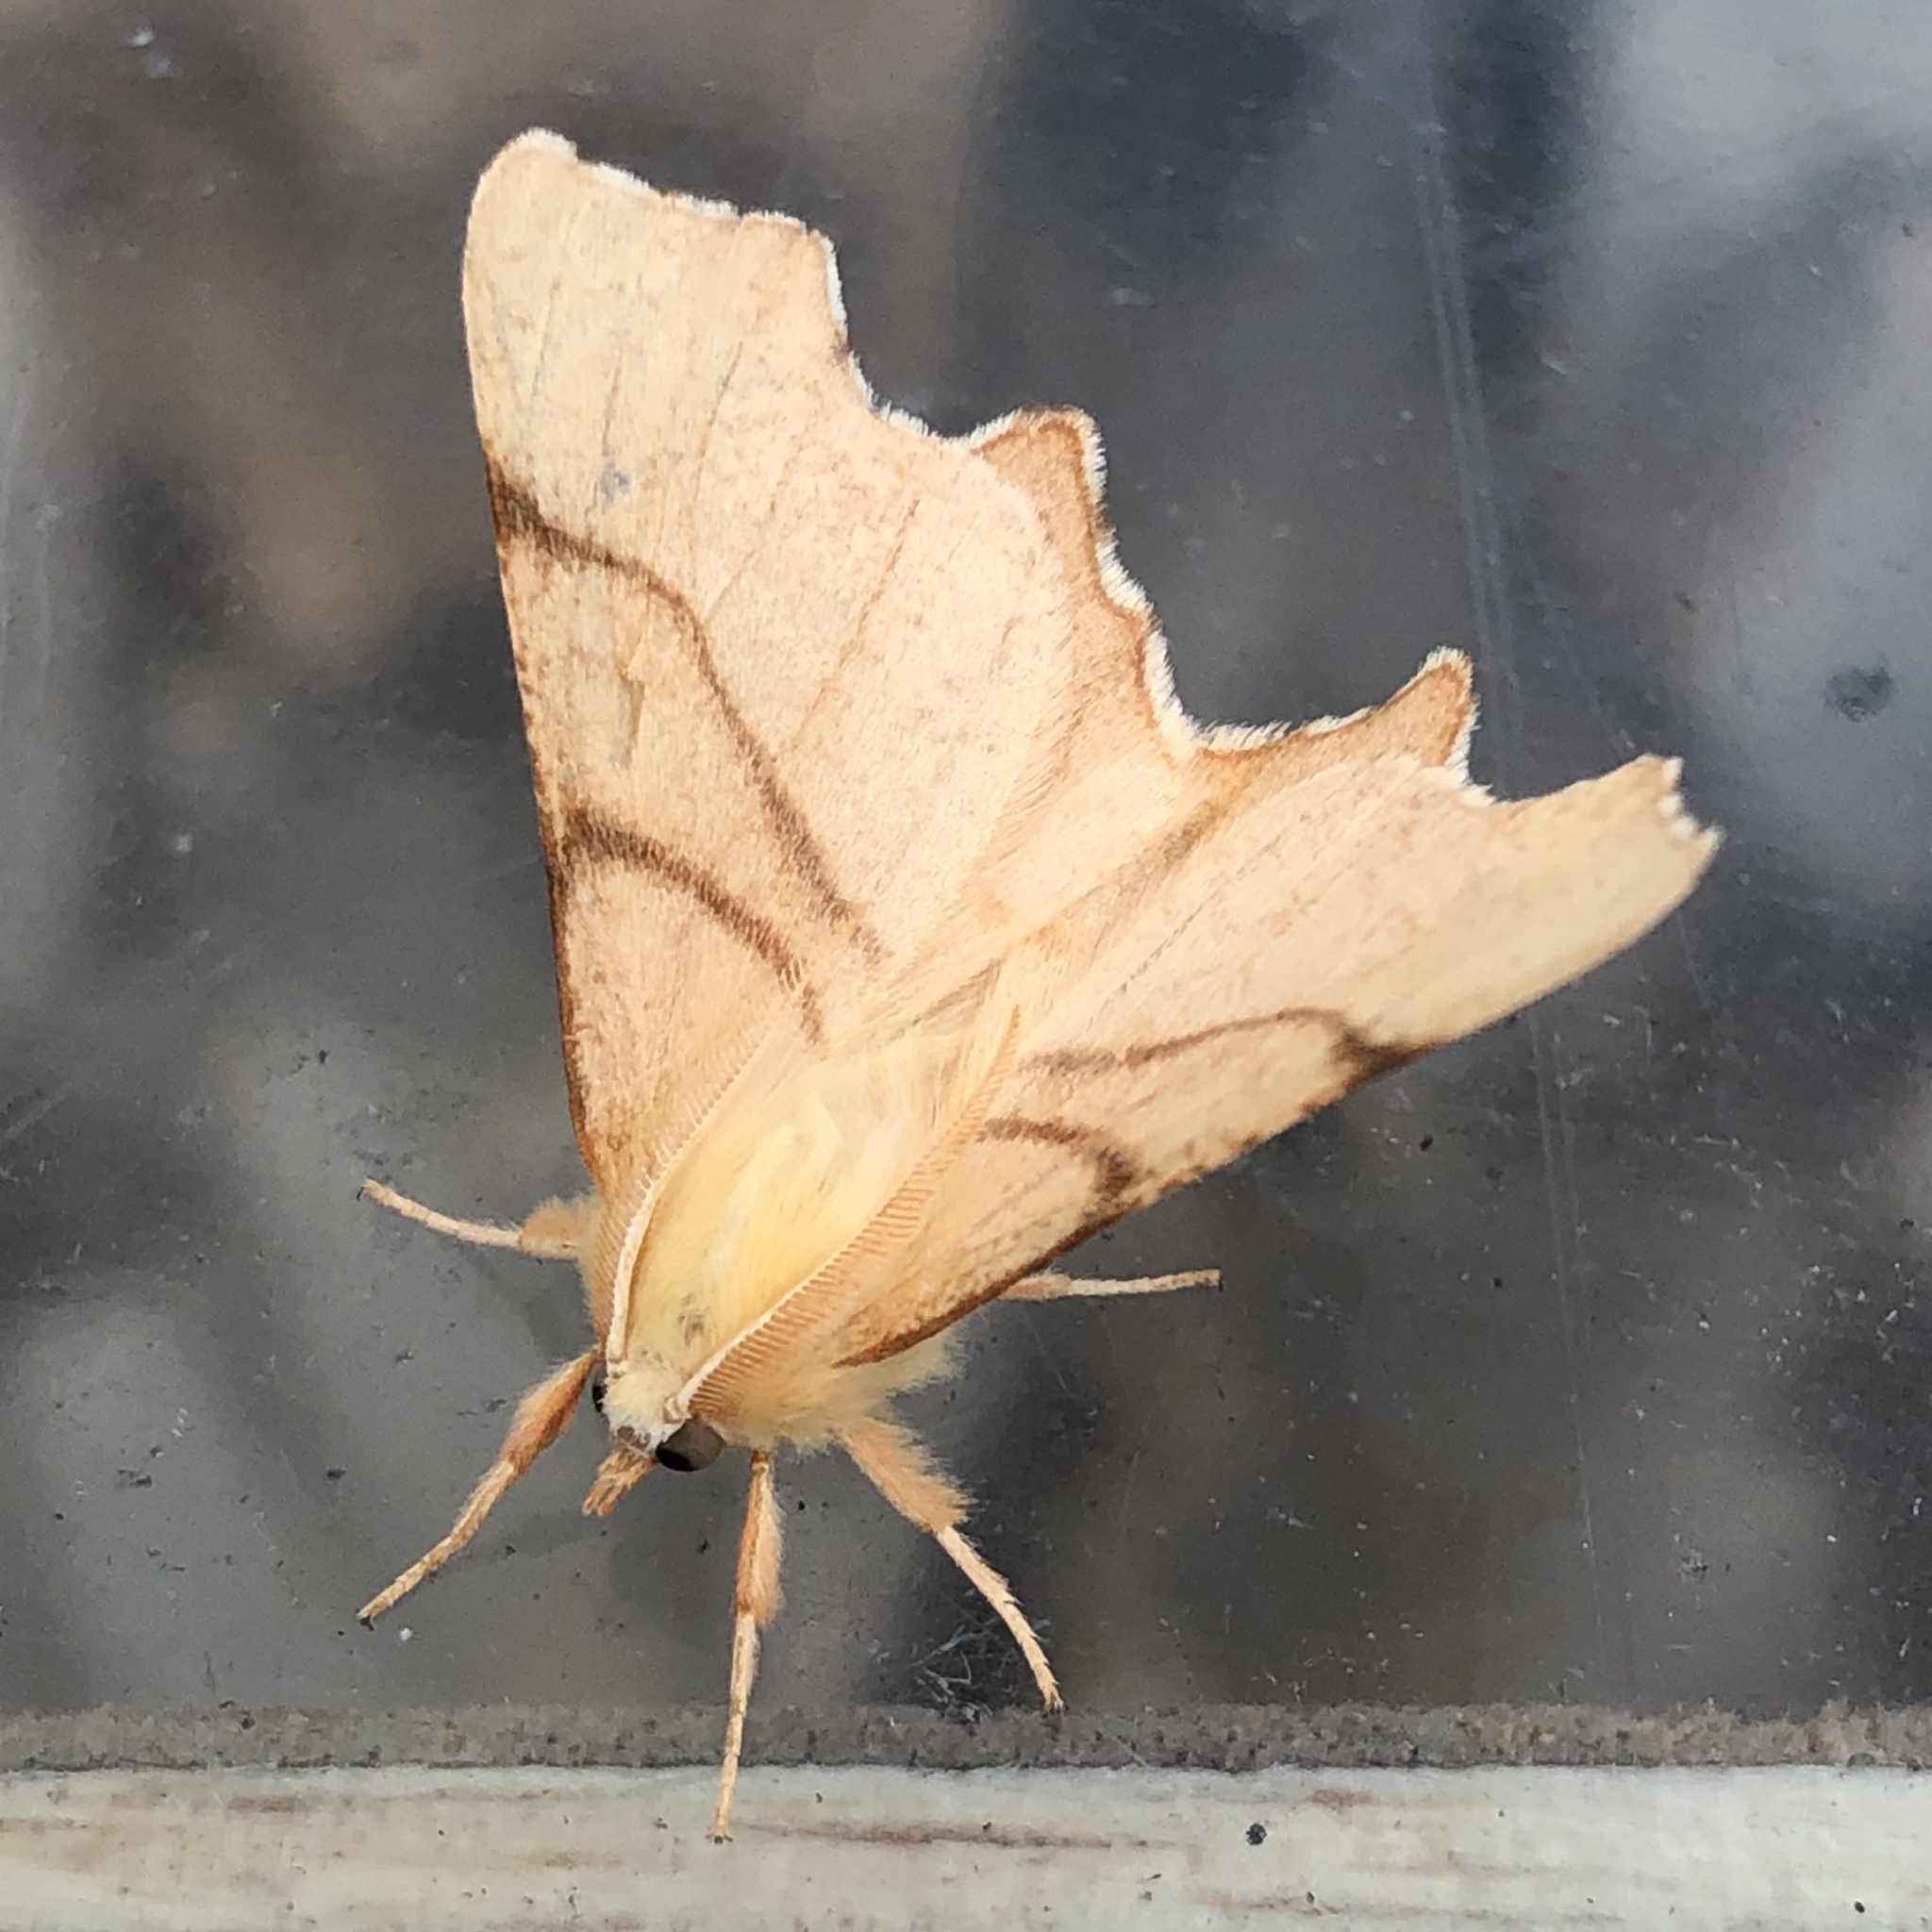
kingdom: Animalia
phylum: Arthropoda
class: Insecta
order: Lepidoptera
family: Geometridae
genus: Ennomos
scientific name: Ennomos erosaria
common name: September thorn
